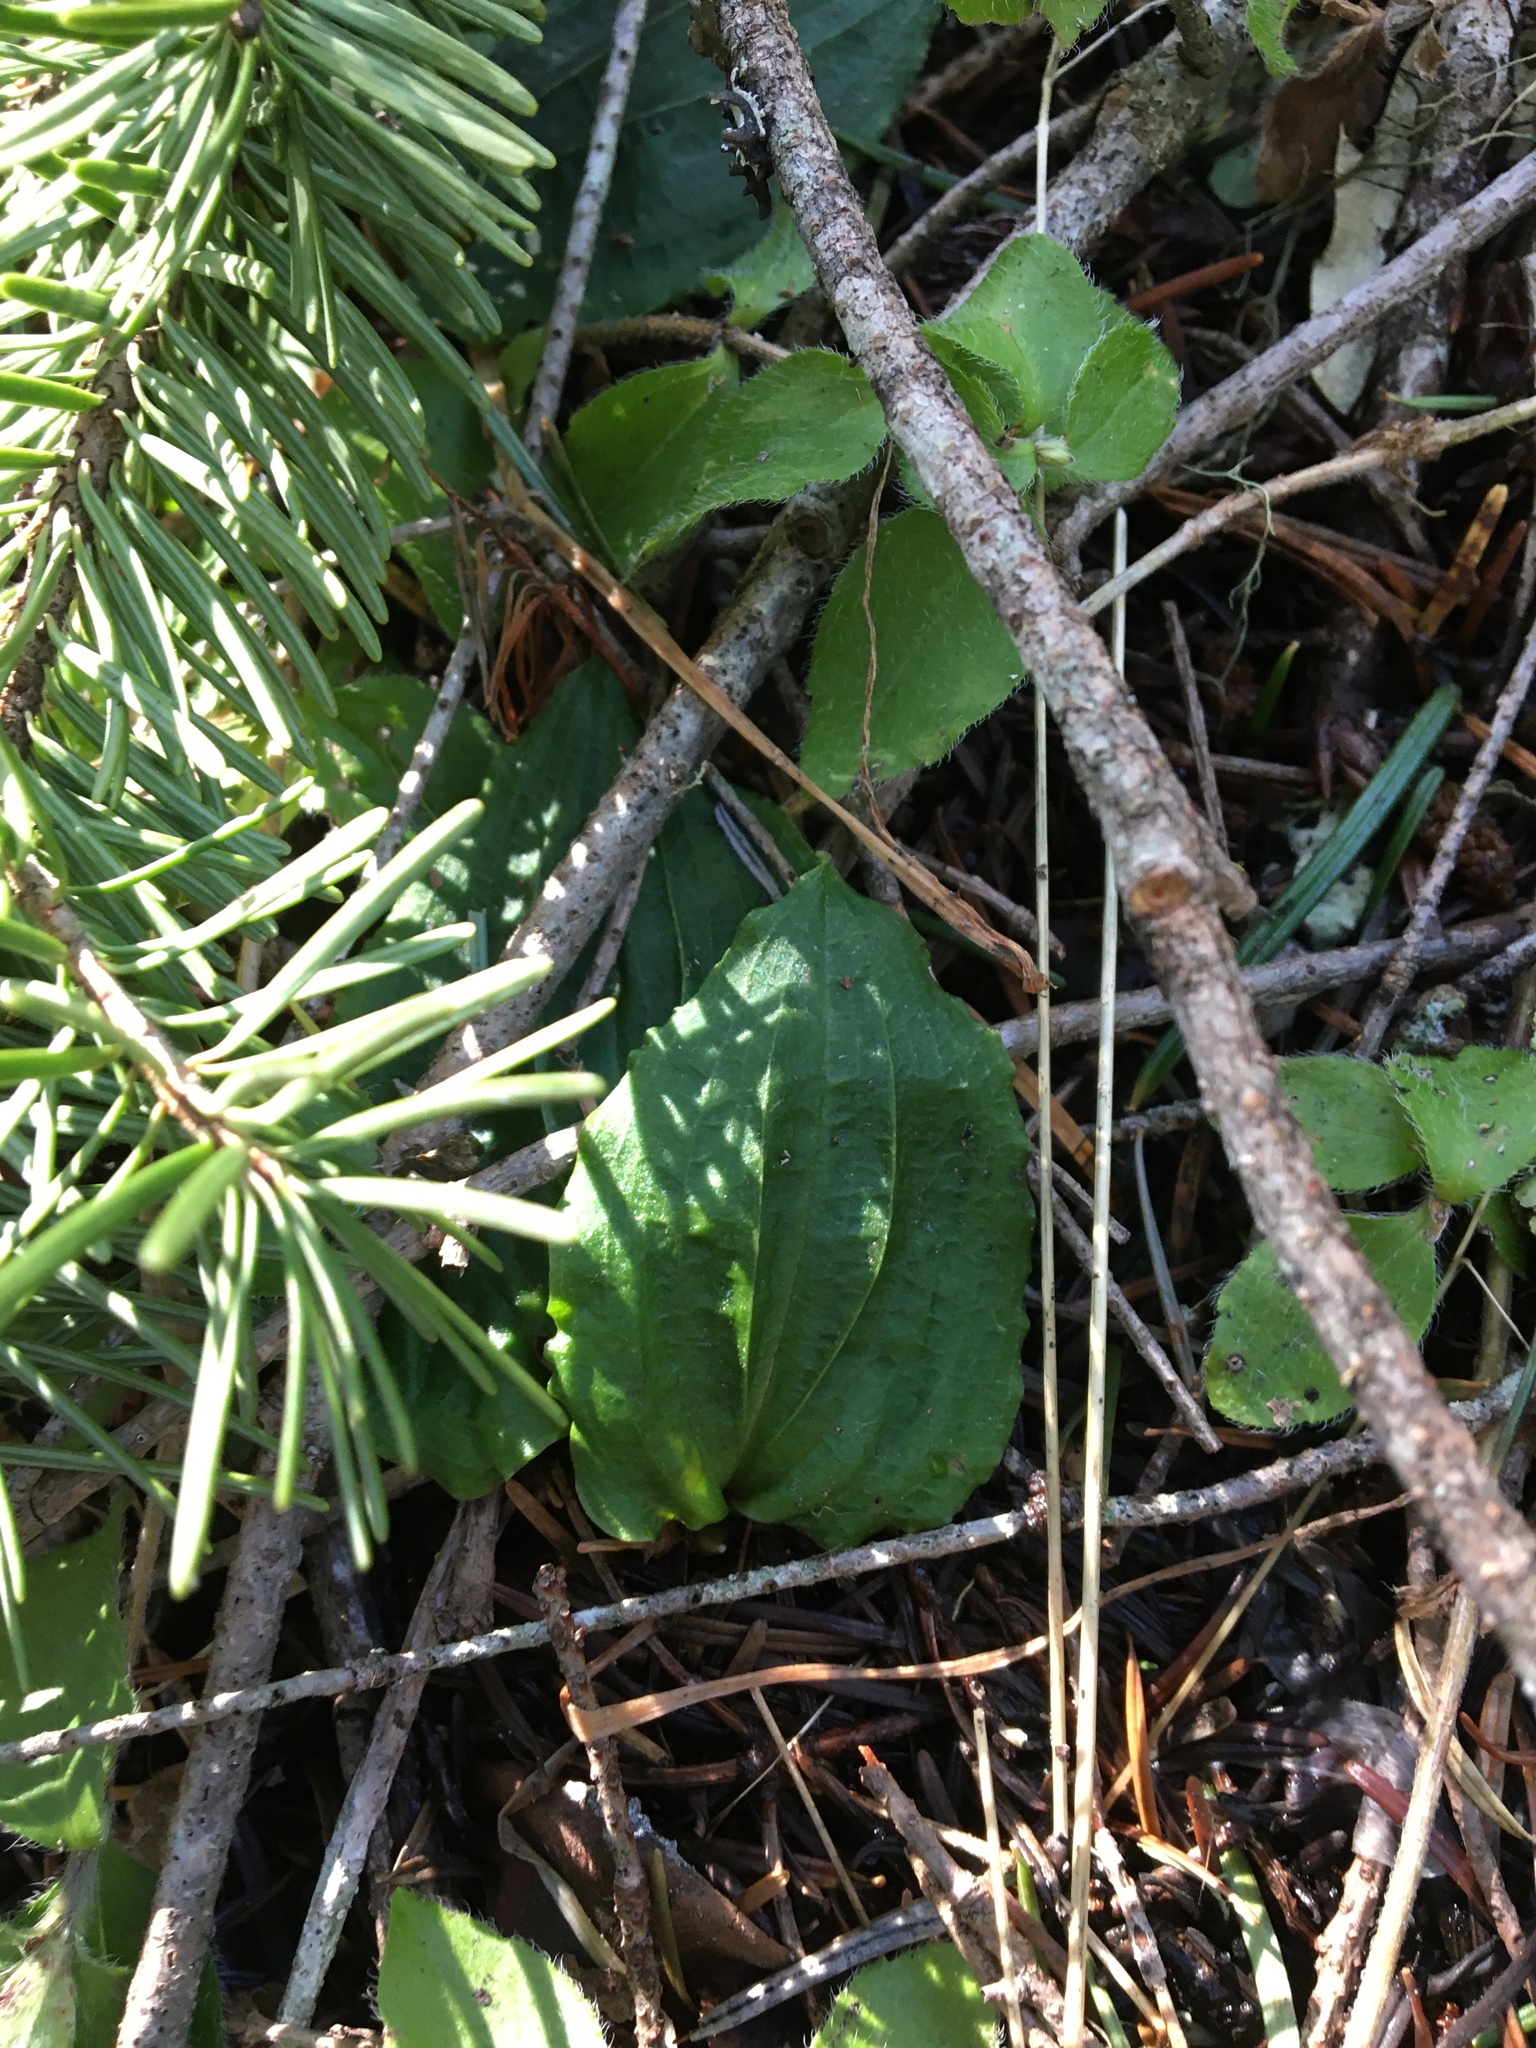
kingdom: Plantae
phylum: Tracheophyta
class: Liliopsida
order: Asparagales
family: Orchidaceae
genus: Calypso
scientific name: Calypso bulbosa
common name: Calypso
